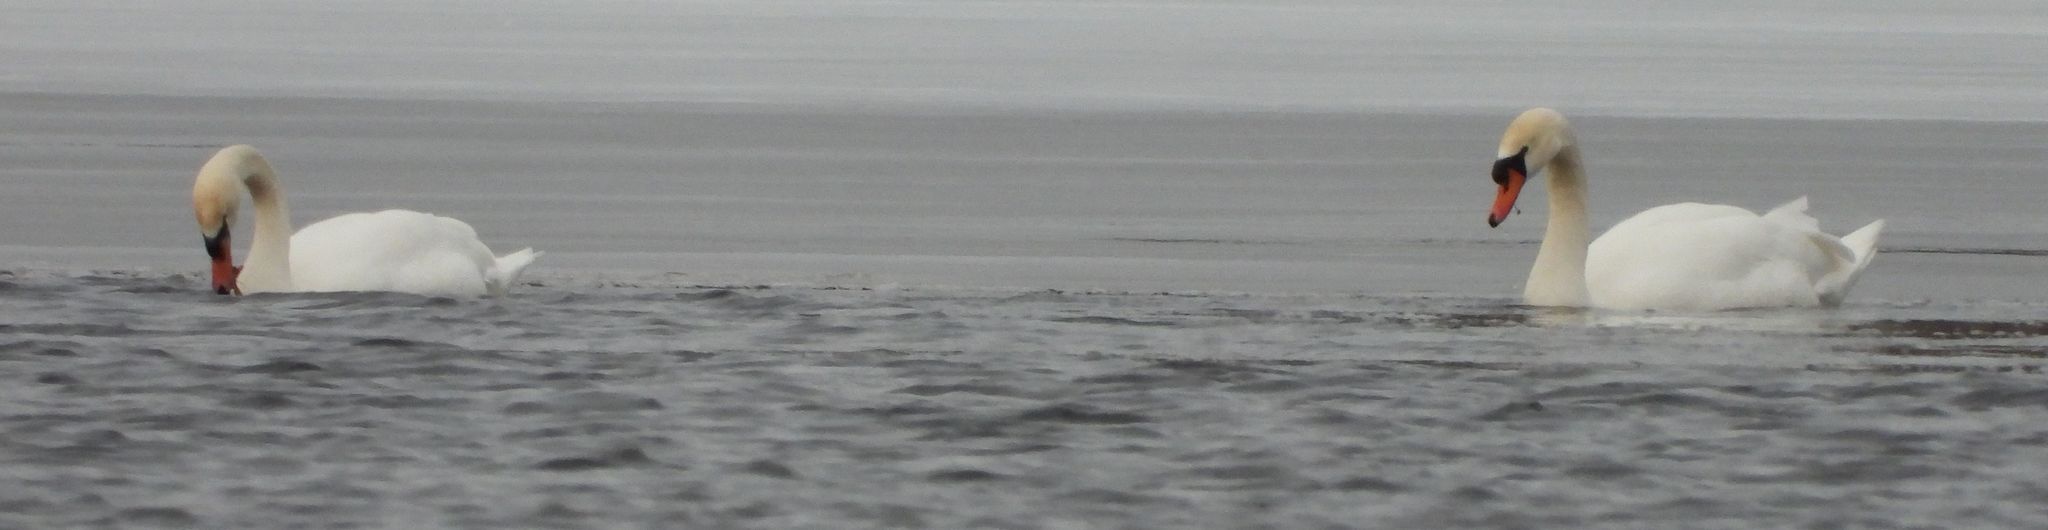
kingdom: Animalia
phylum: Chordata
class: Aves
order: Anseriformes
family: Anatidae
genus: Cygnus
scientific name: Cygnus olor
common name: Mute swan
